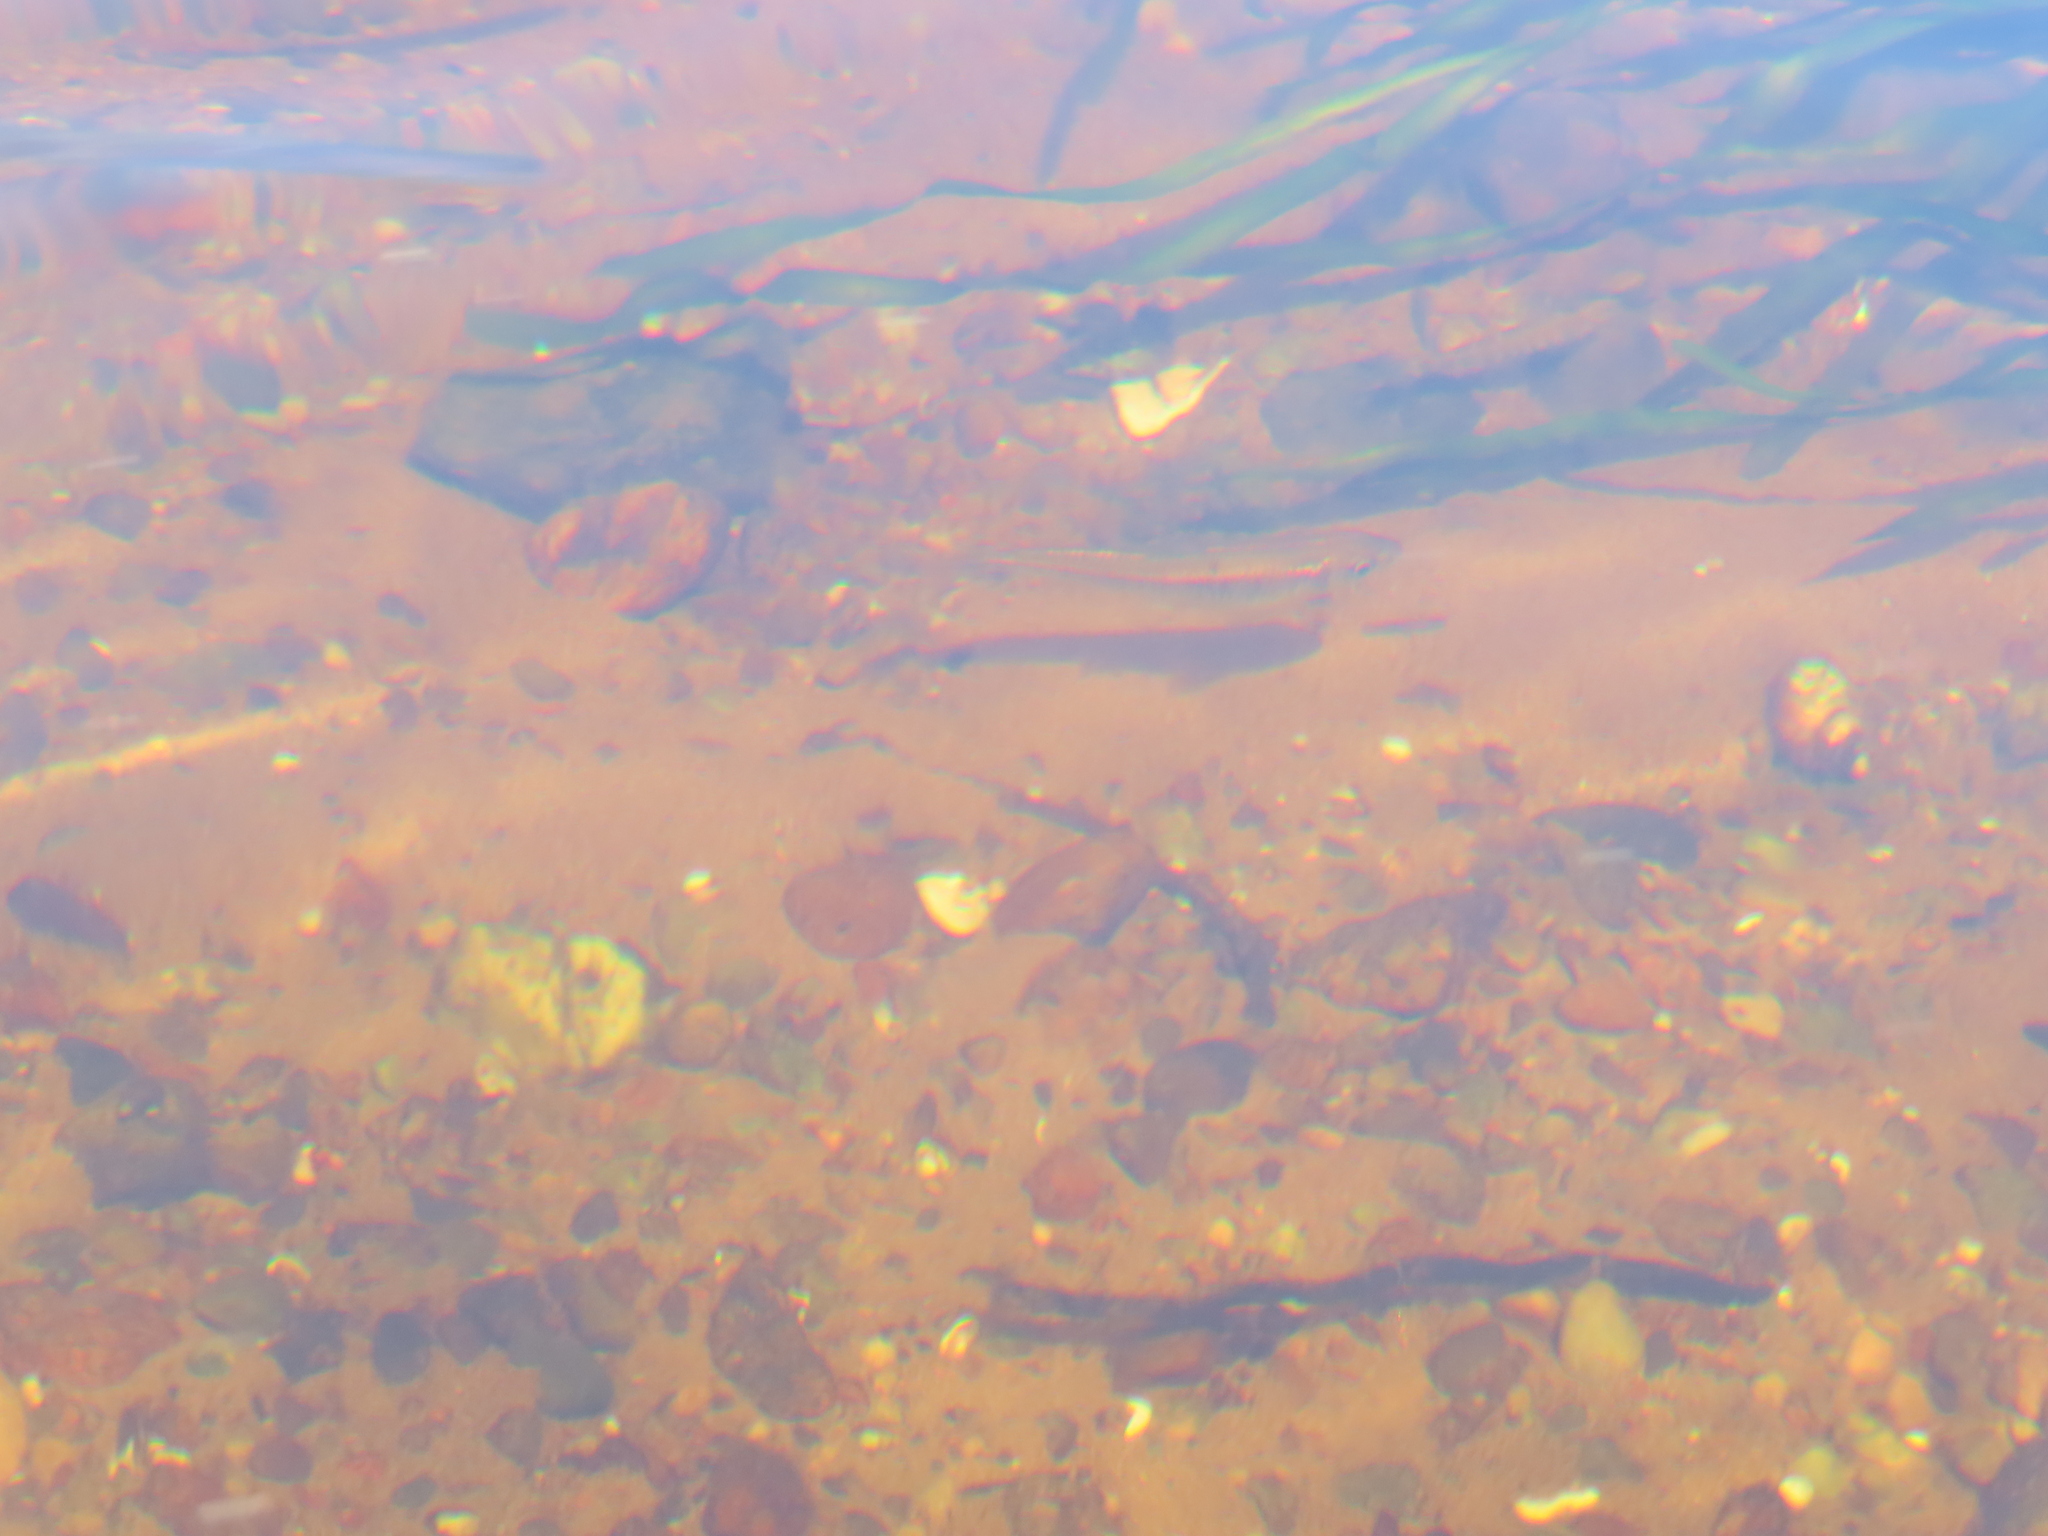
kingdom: Animalia
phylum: Chordata
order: Cypriniformes
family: Cyprinidae
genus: Luxilus
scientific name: Luxilus cornutus
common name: Common shiner
